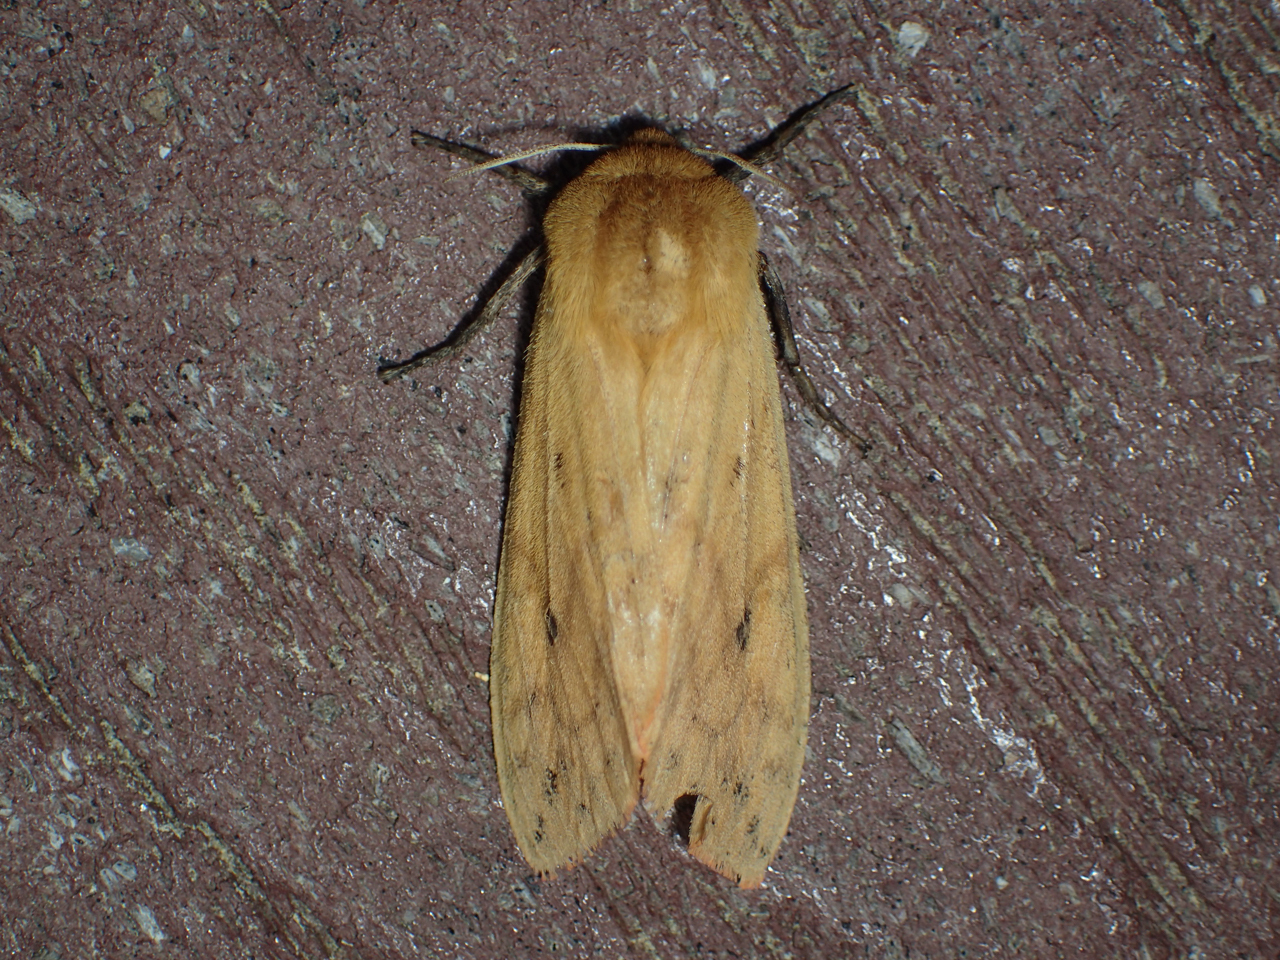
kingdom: Animalia
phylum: Arthropoda
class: Insecta
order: Lepidoptera
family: Erebidae
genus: Pyrrharctia
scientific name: Pyrrharctia isabella
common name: Isabella tiger moth
